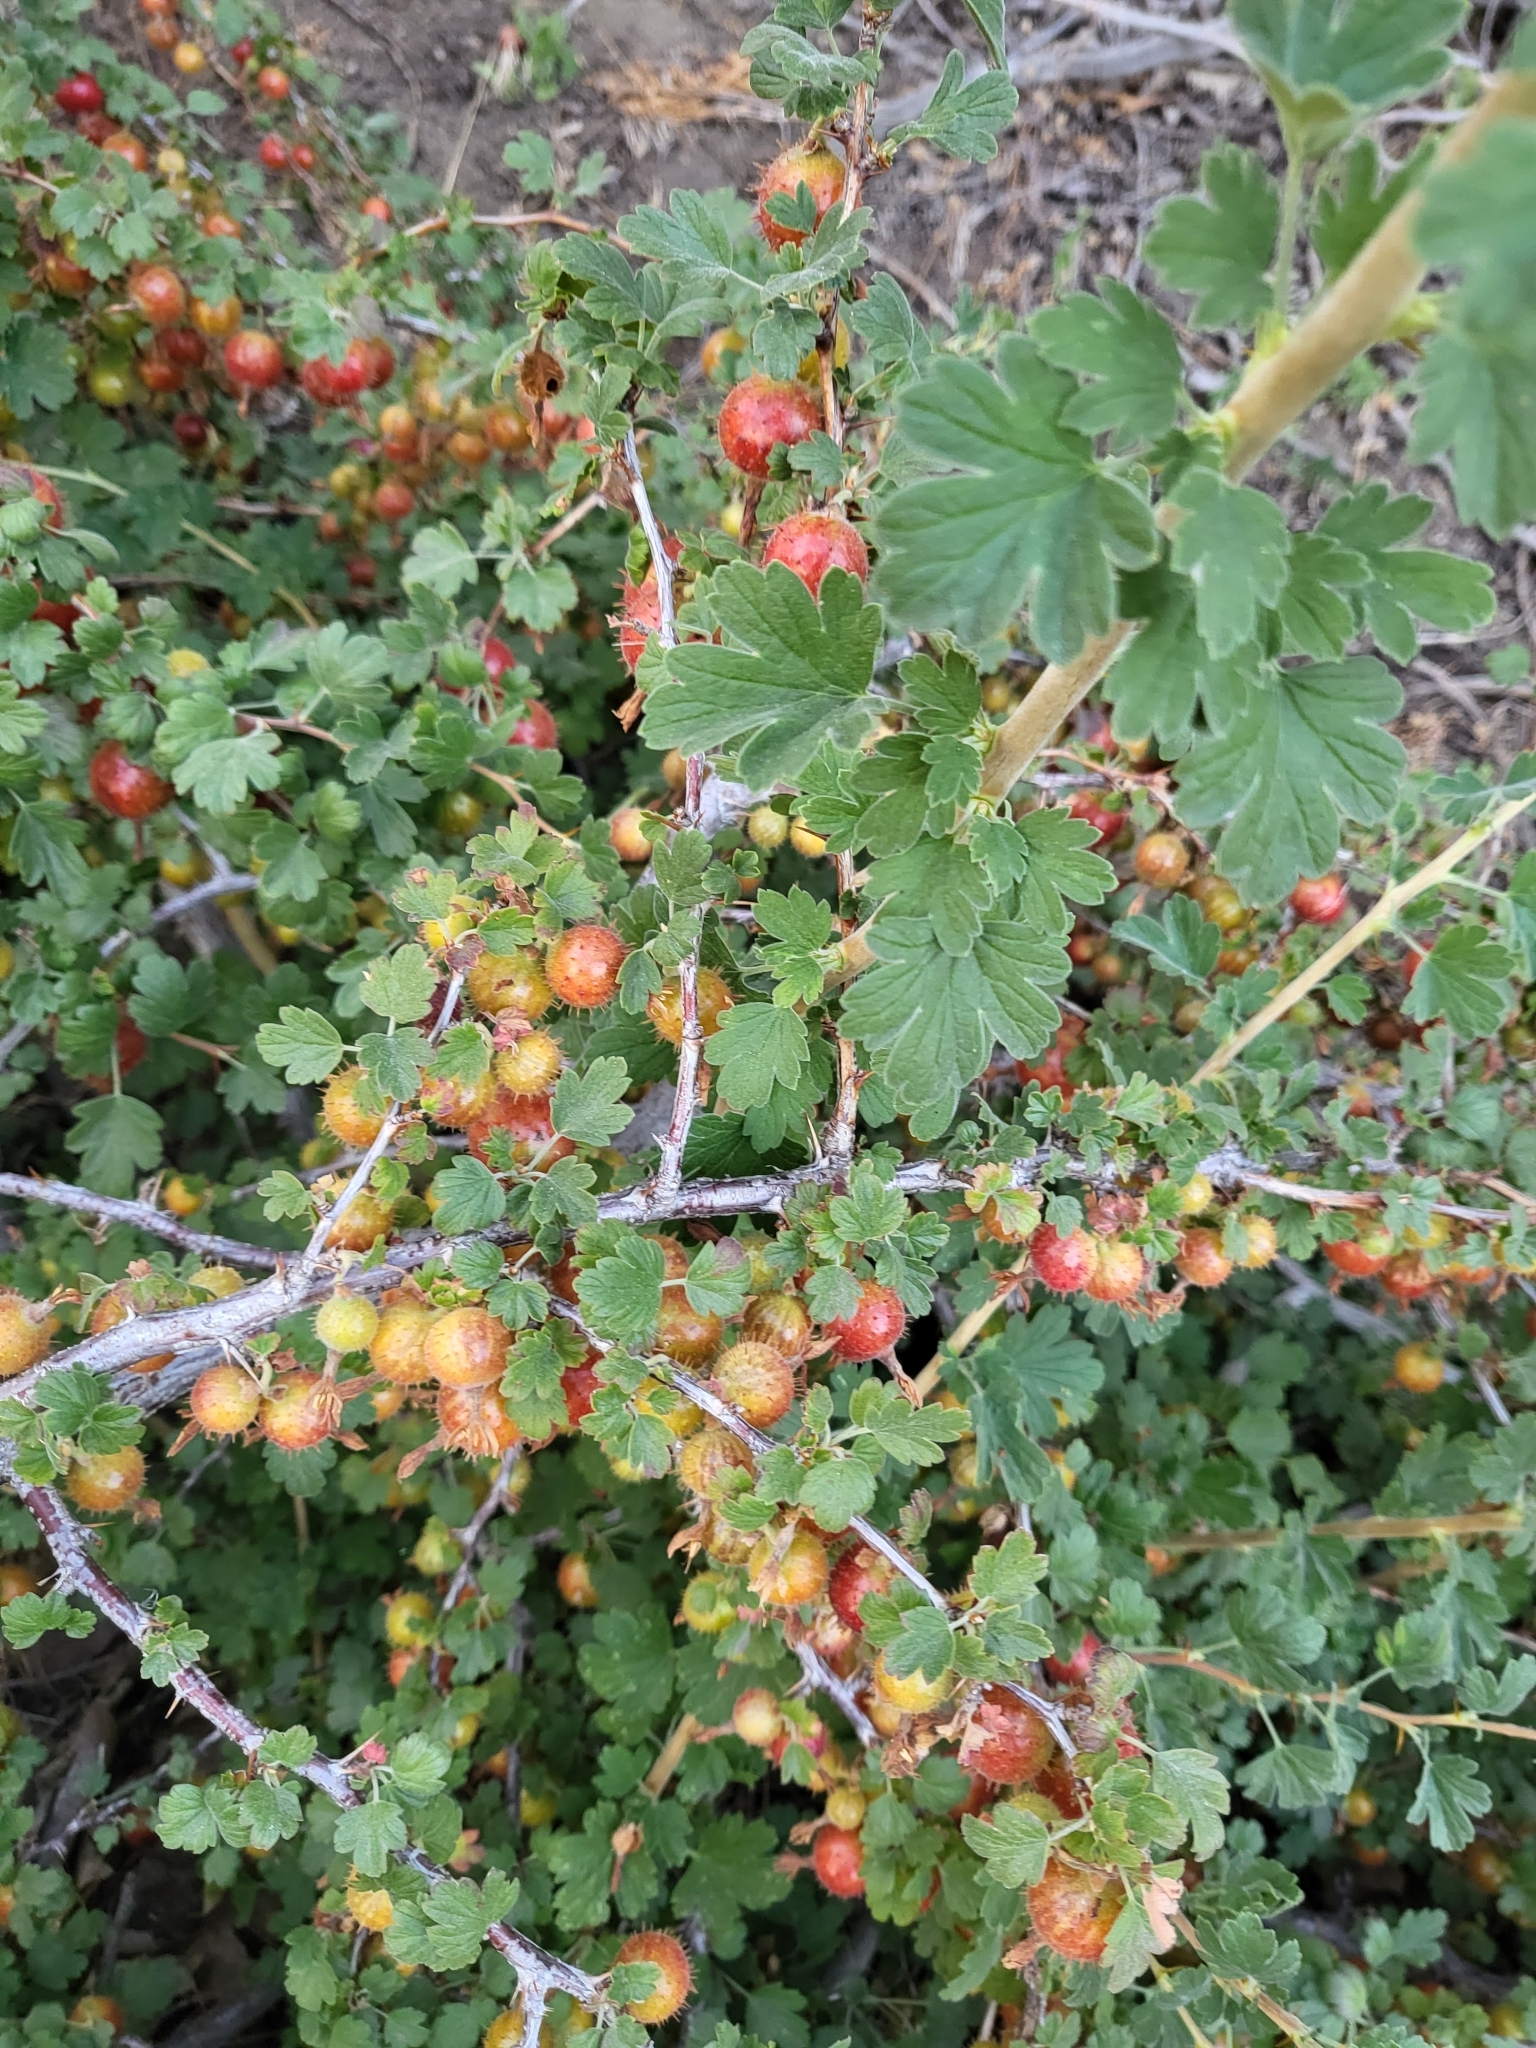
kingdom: Plantae
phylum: Tracheophyta
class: Magnoliopsida
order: Saxifragales
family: Grossulariaceae
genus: Ribes
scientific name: Ribes roezlii
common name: Sierra gooseberry
